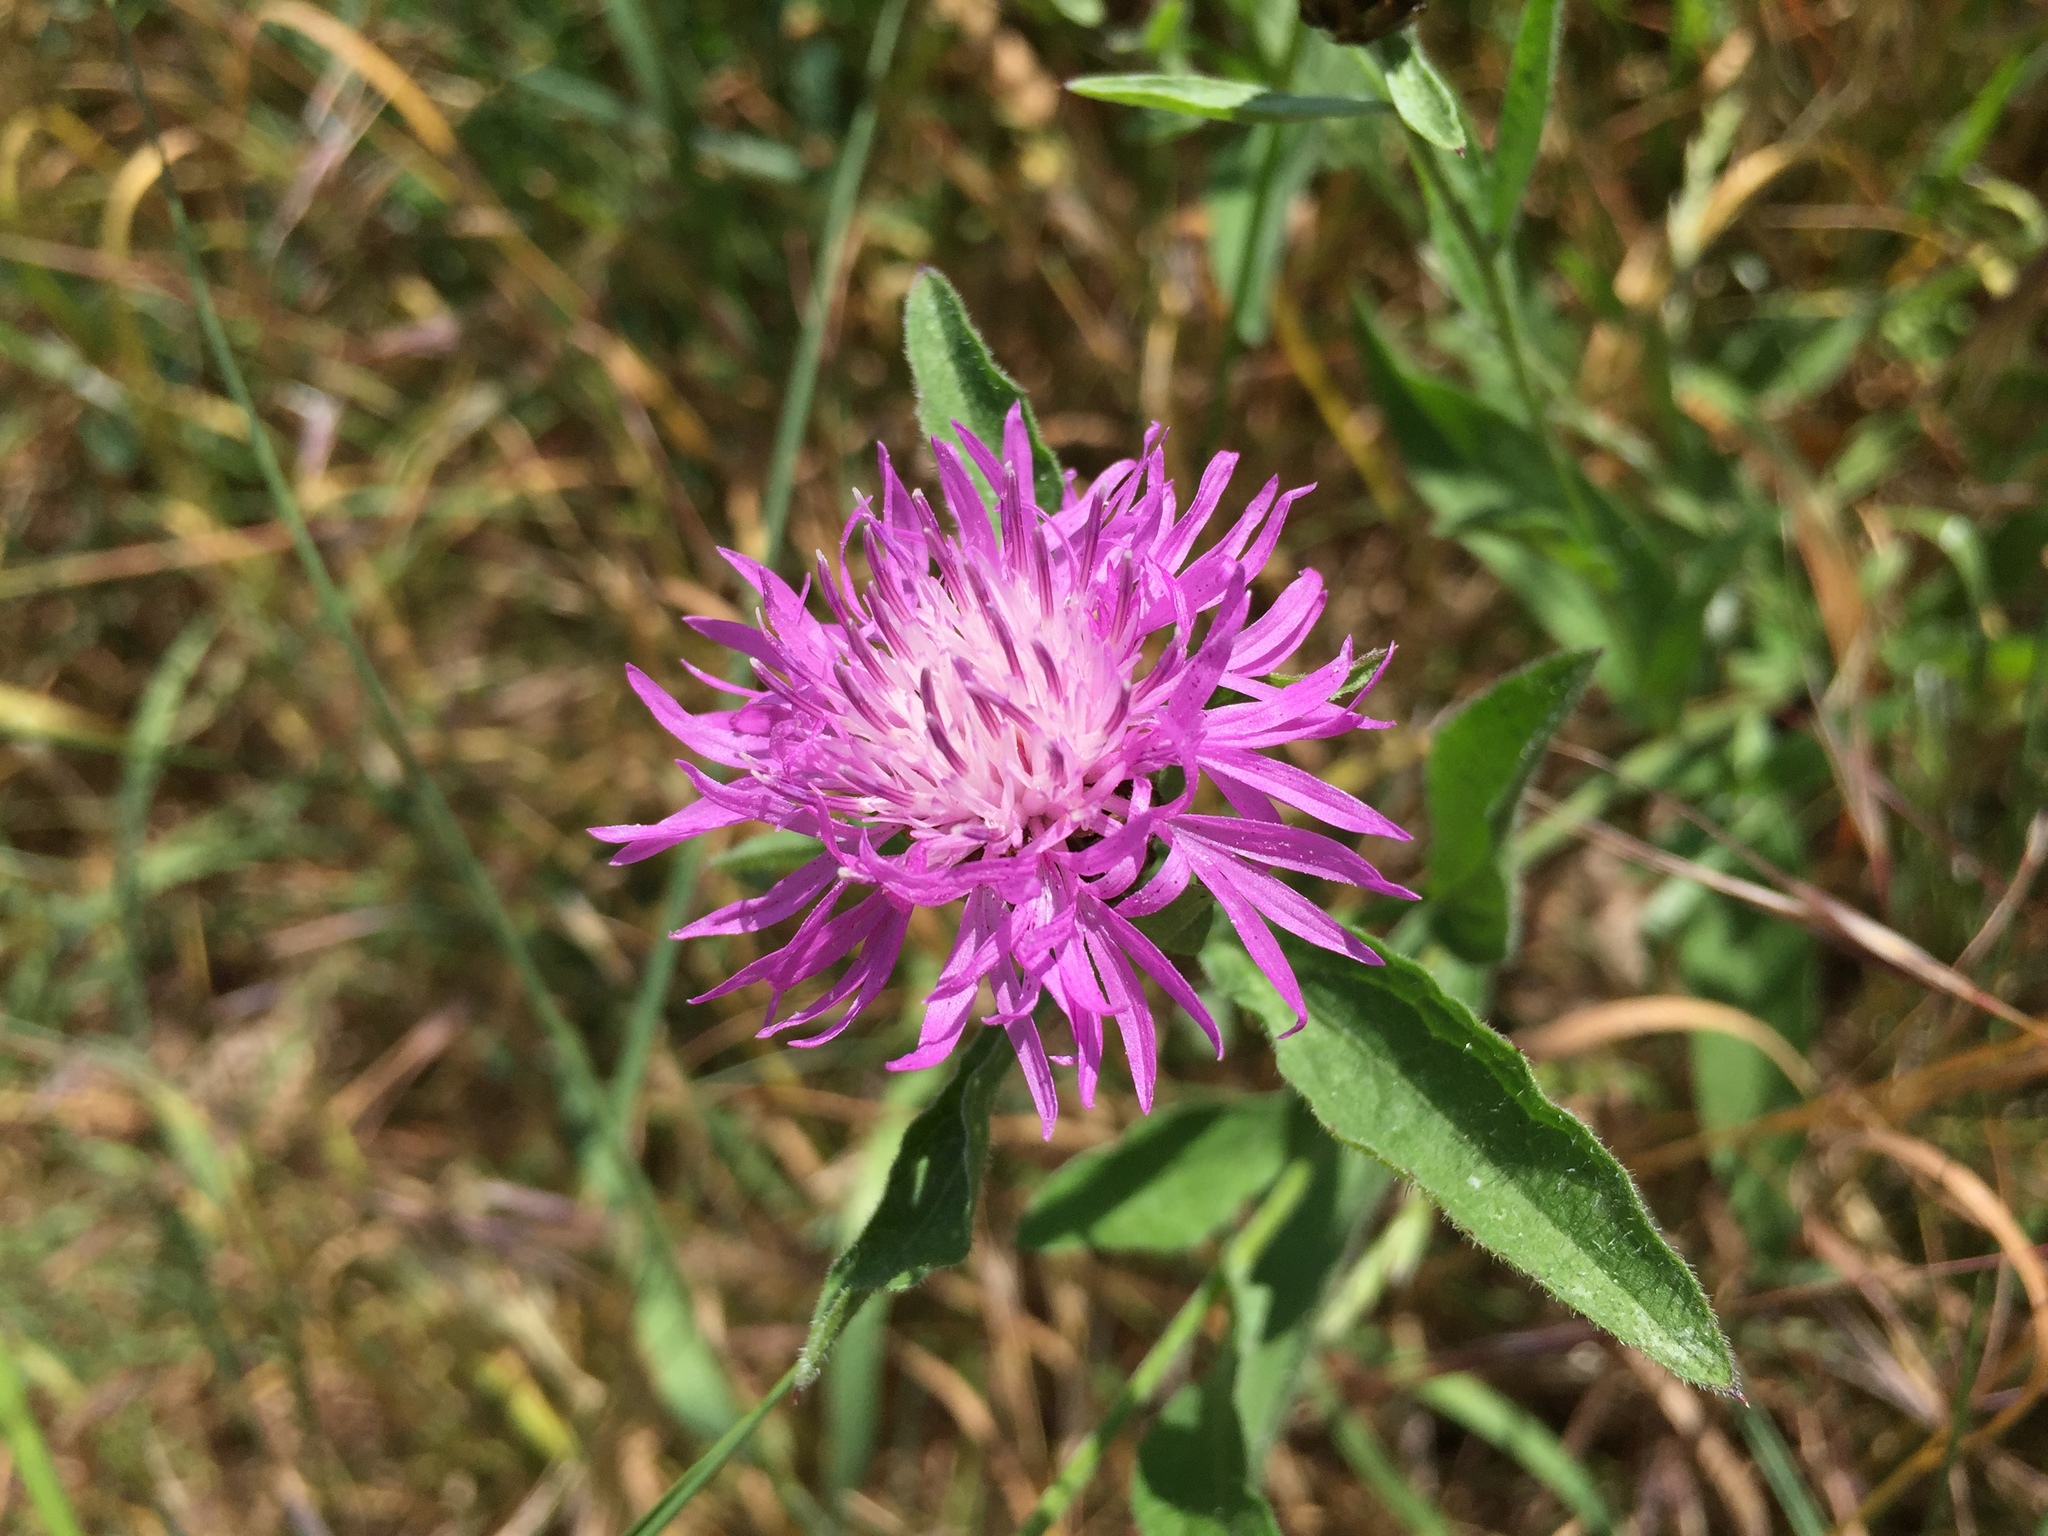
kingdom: Plantae
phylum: Tracheophyta
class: Magnoliopsida
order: Asterales
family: Asteraceae
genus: Centaurea
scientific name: Centaurea jacea
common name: Brown knapweed
